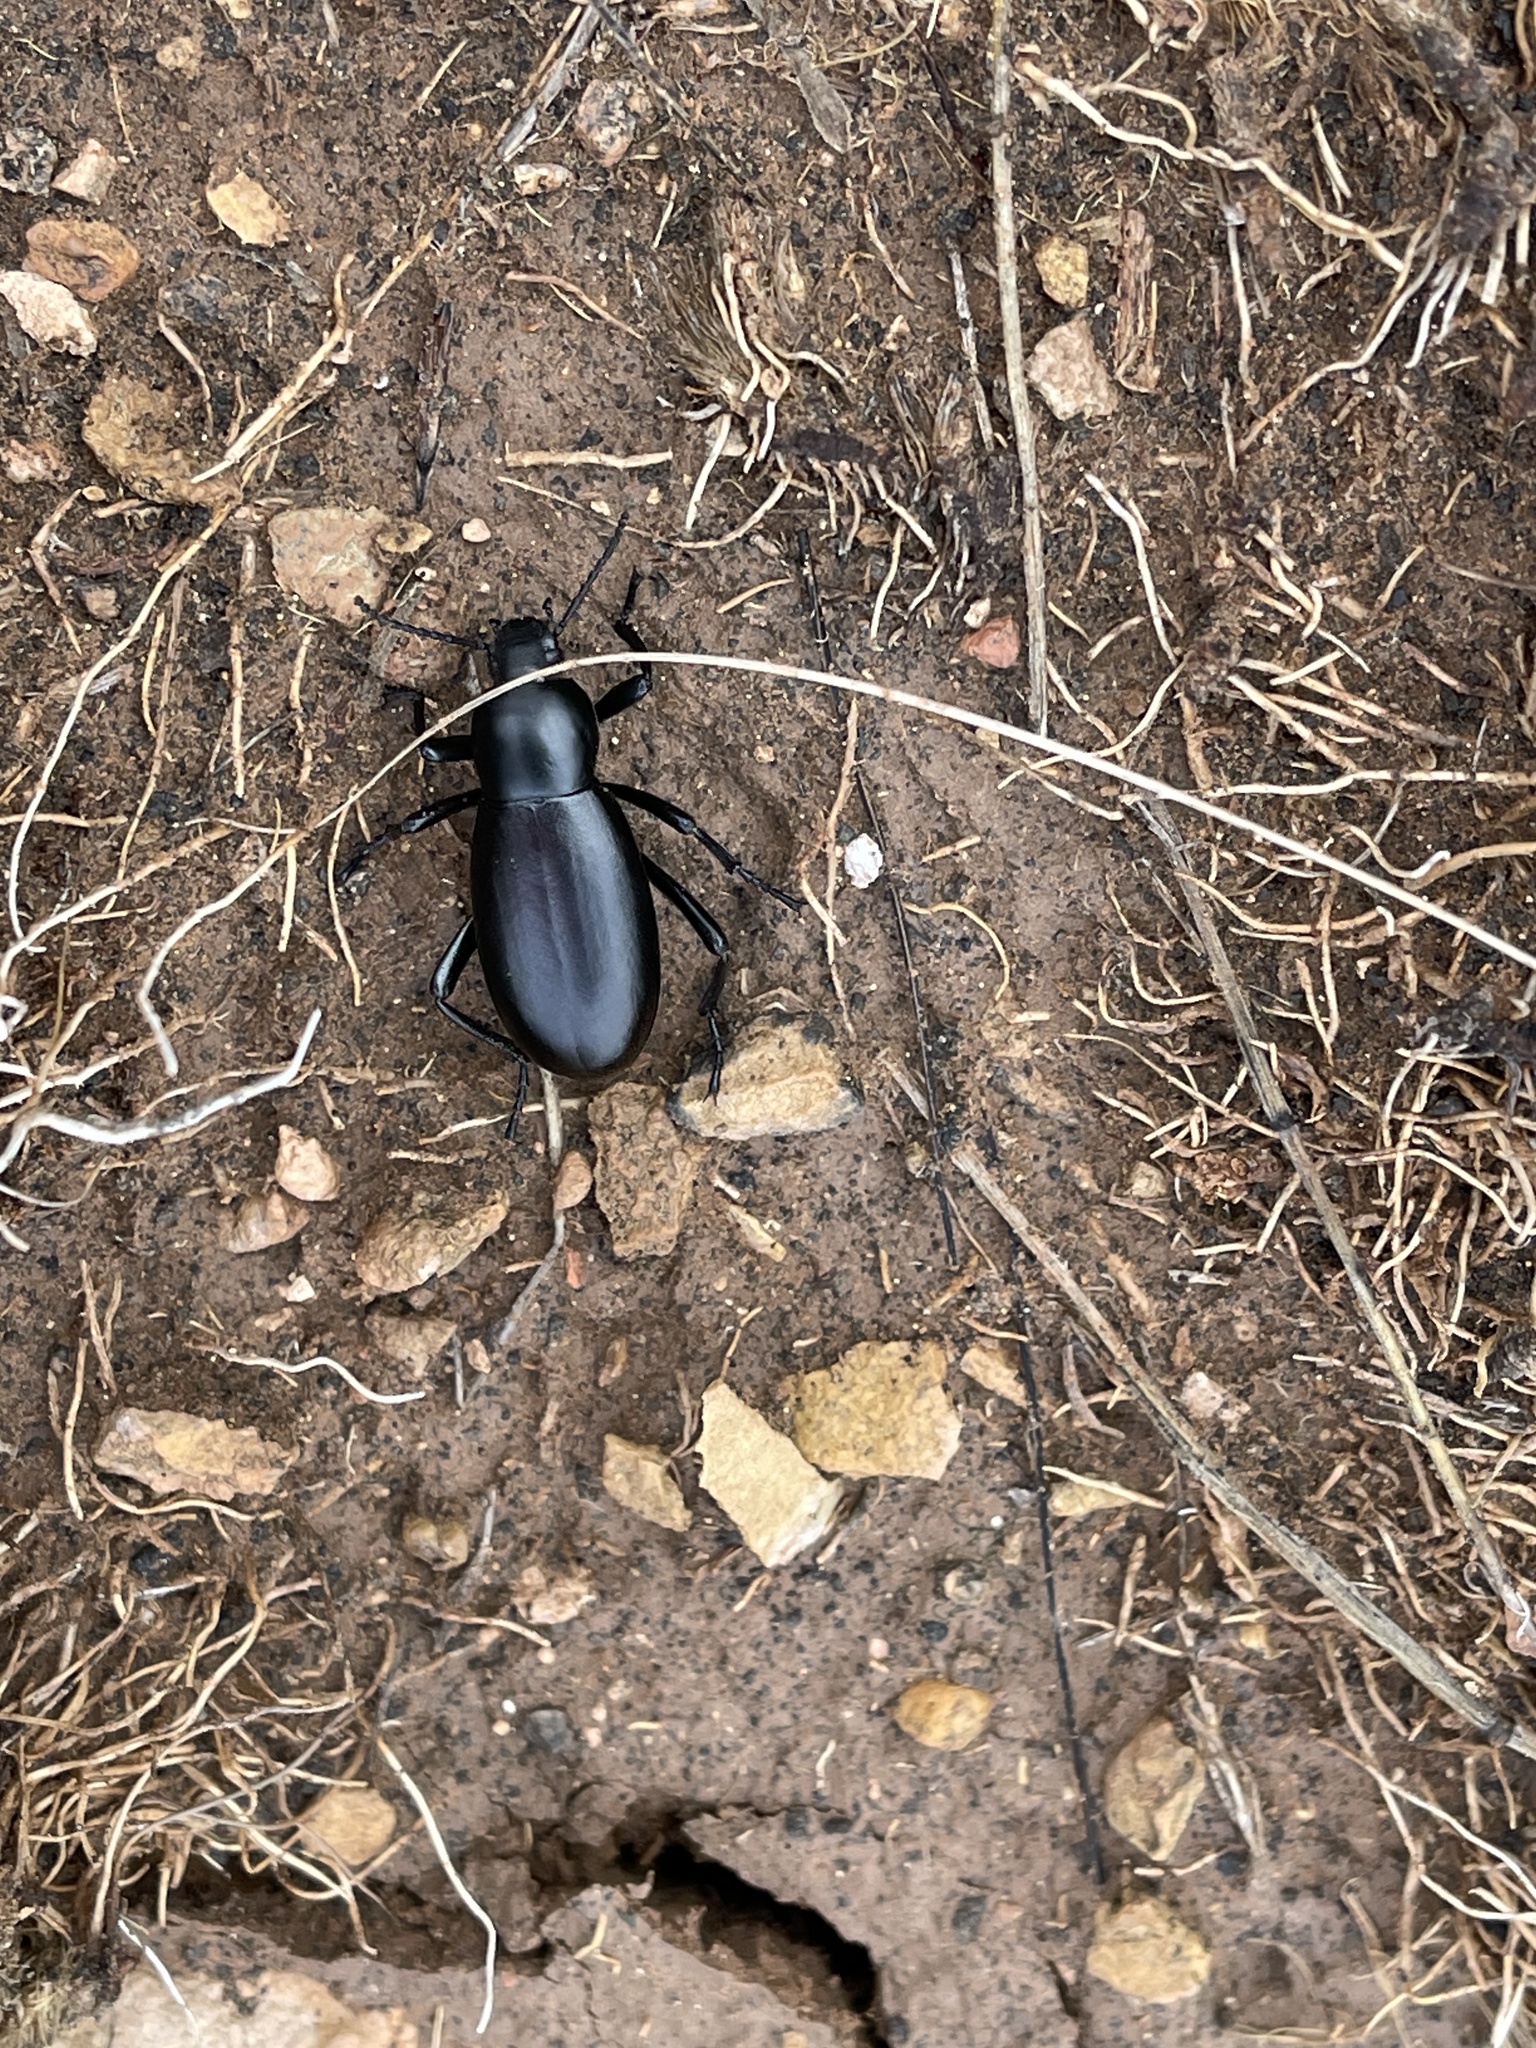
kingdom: Animalia
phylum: Arthropoda
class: Insecta
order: Coleoptera
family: Tenebrionidae
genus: Eleodes
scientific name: Eleodes longicollis
